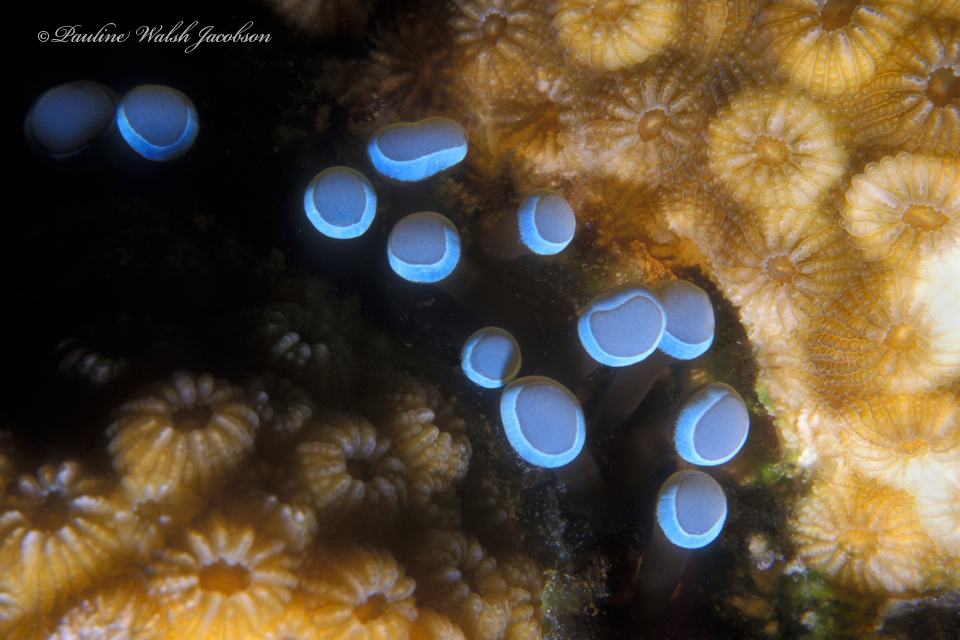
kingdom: Animalia
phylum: Cnidaria
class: Anthozoa
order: Actiniaria
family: Aliciidae
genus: Lebrunia
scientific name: Lebrunia coralligens
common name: Hidden anemone
